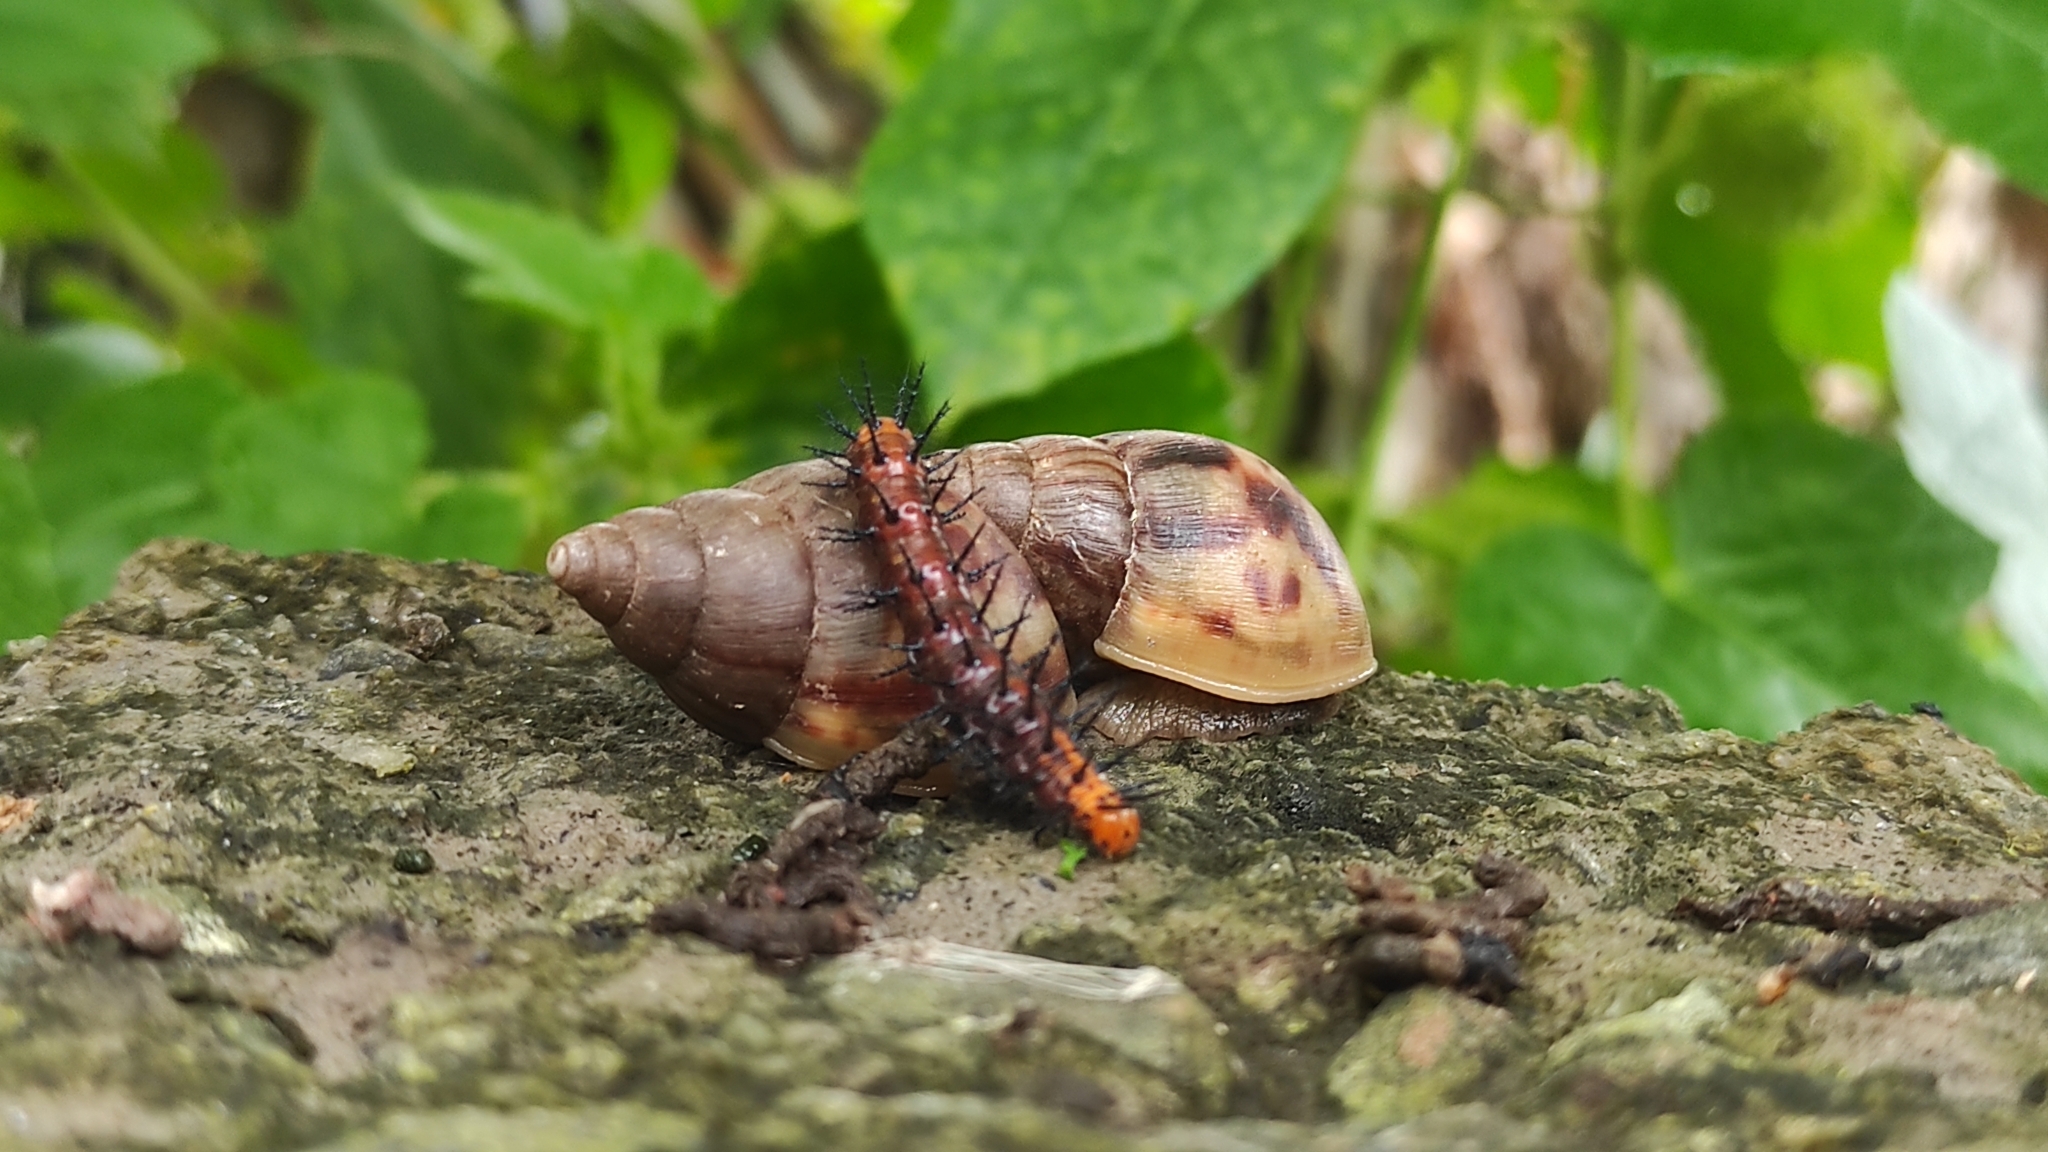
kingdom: Animalia
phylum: Mollusca
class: Gastropoda
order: Stylommatophora
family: Achatinidae
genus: Lissachatina
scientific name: Lissachatina fulica
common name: Giant african snail
